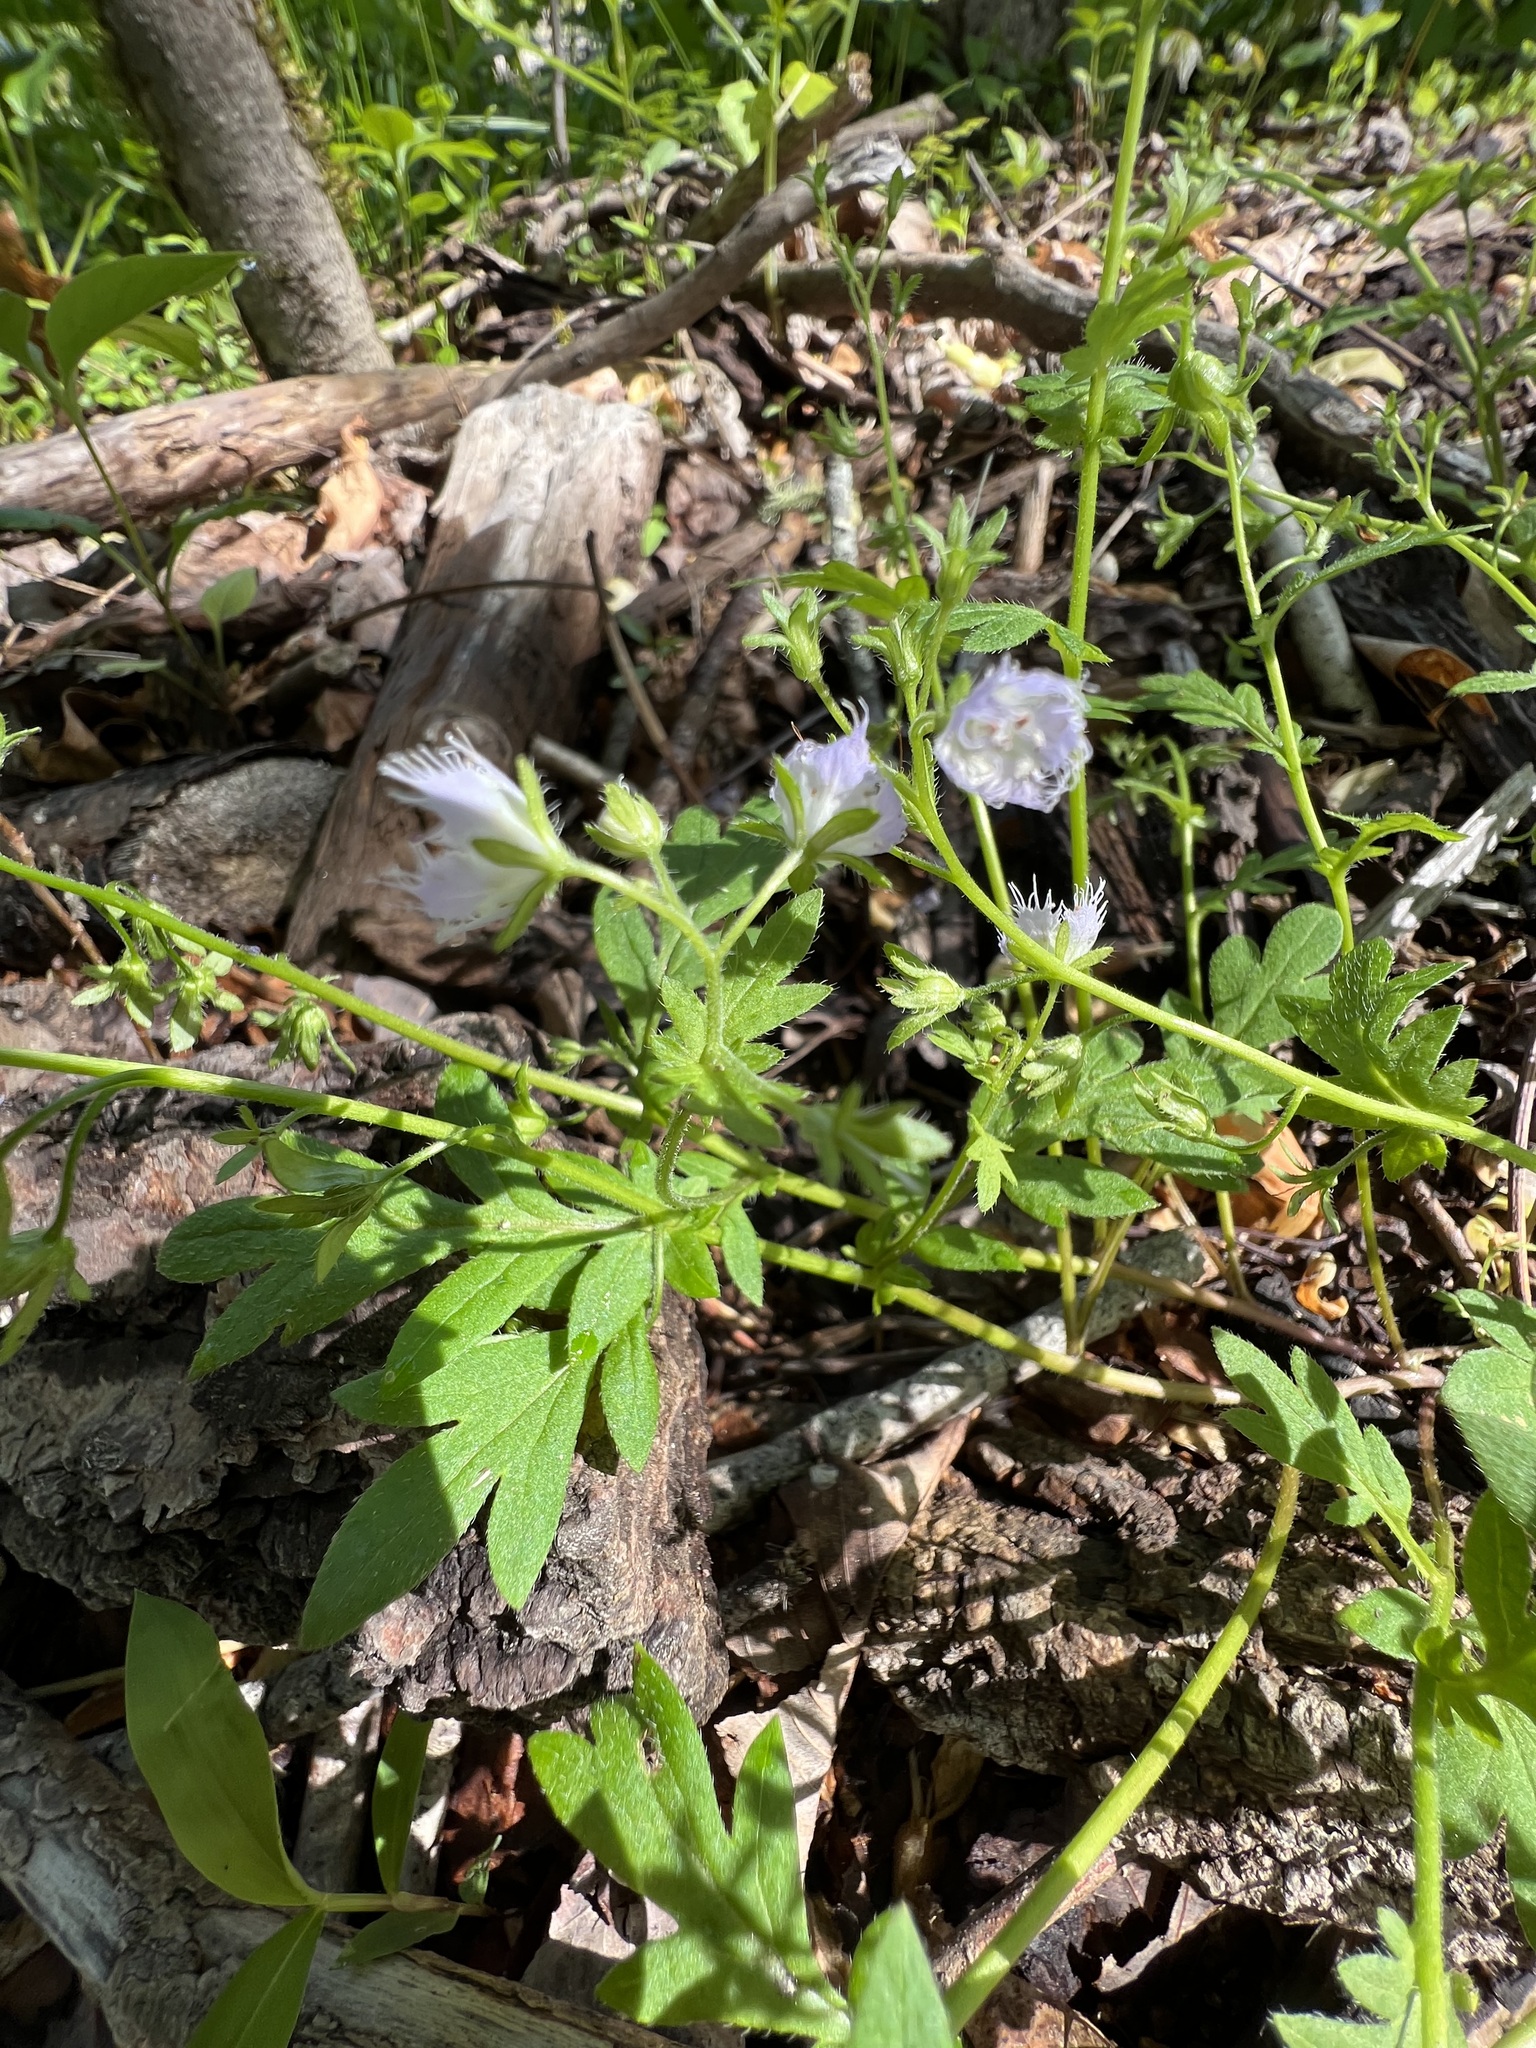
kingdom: Plantae
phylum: Tracheophyta
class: Magnoliopsida
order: Boraginales
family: Hydrophyllaceae
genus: Phacelia
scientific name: Phacelia fimbriata
